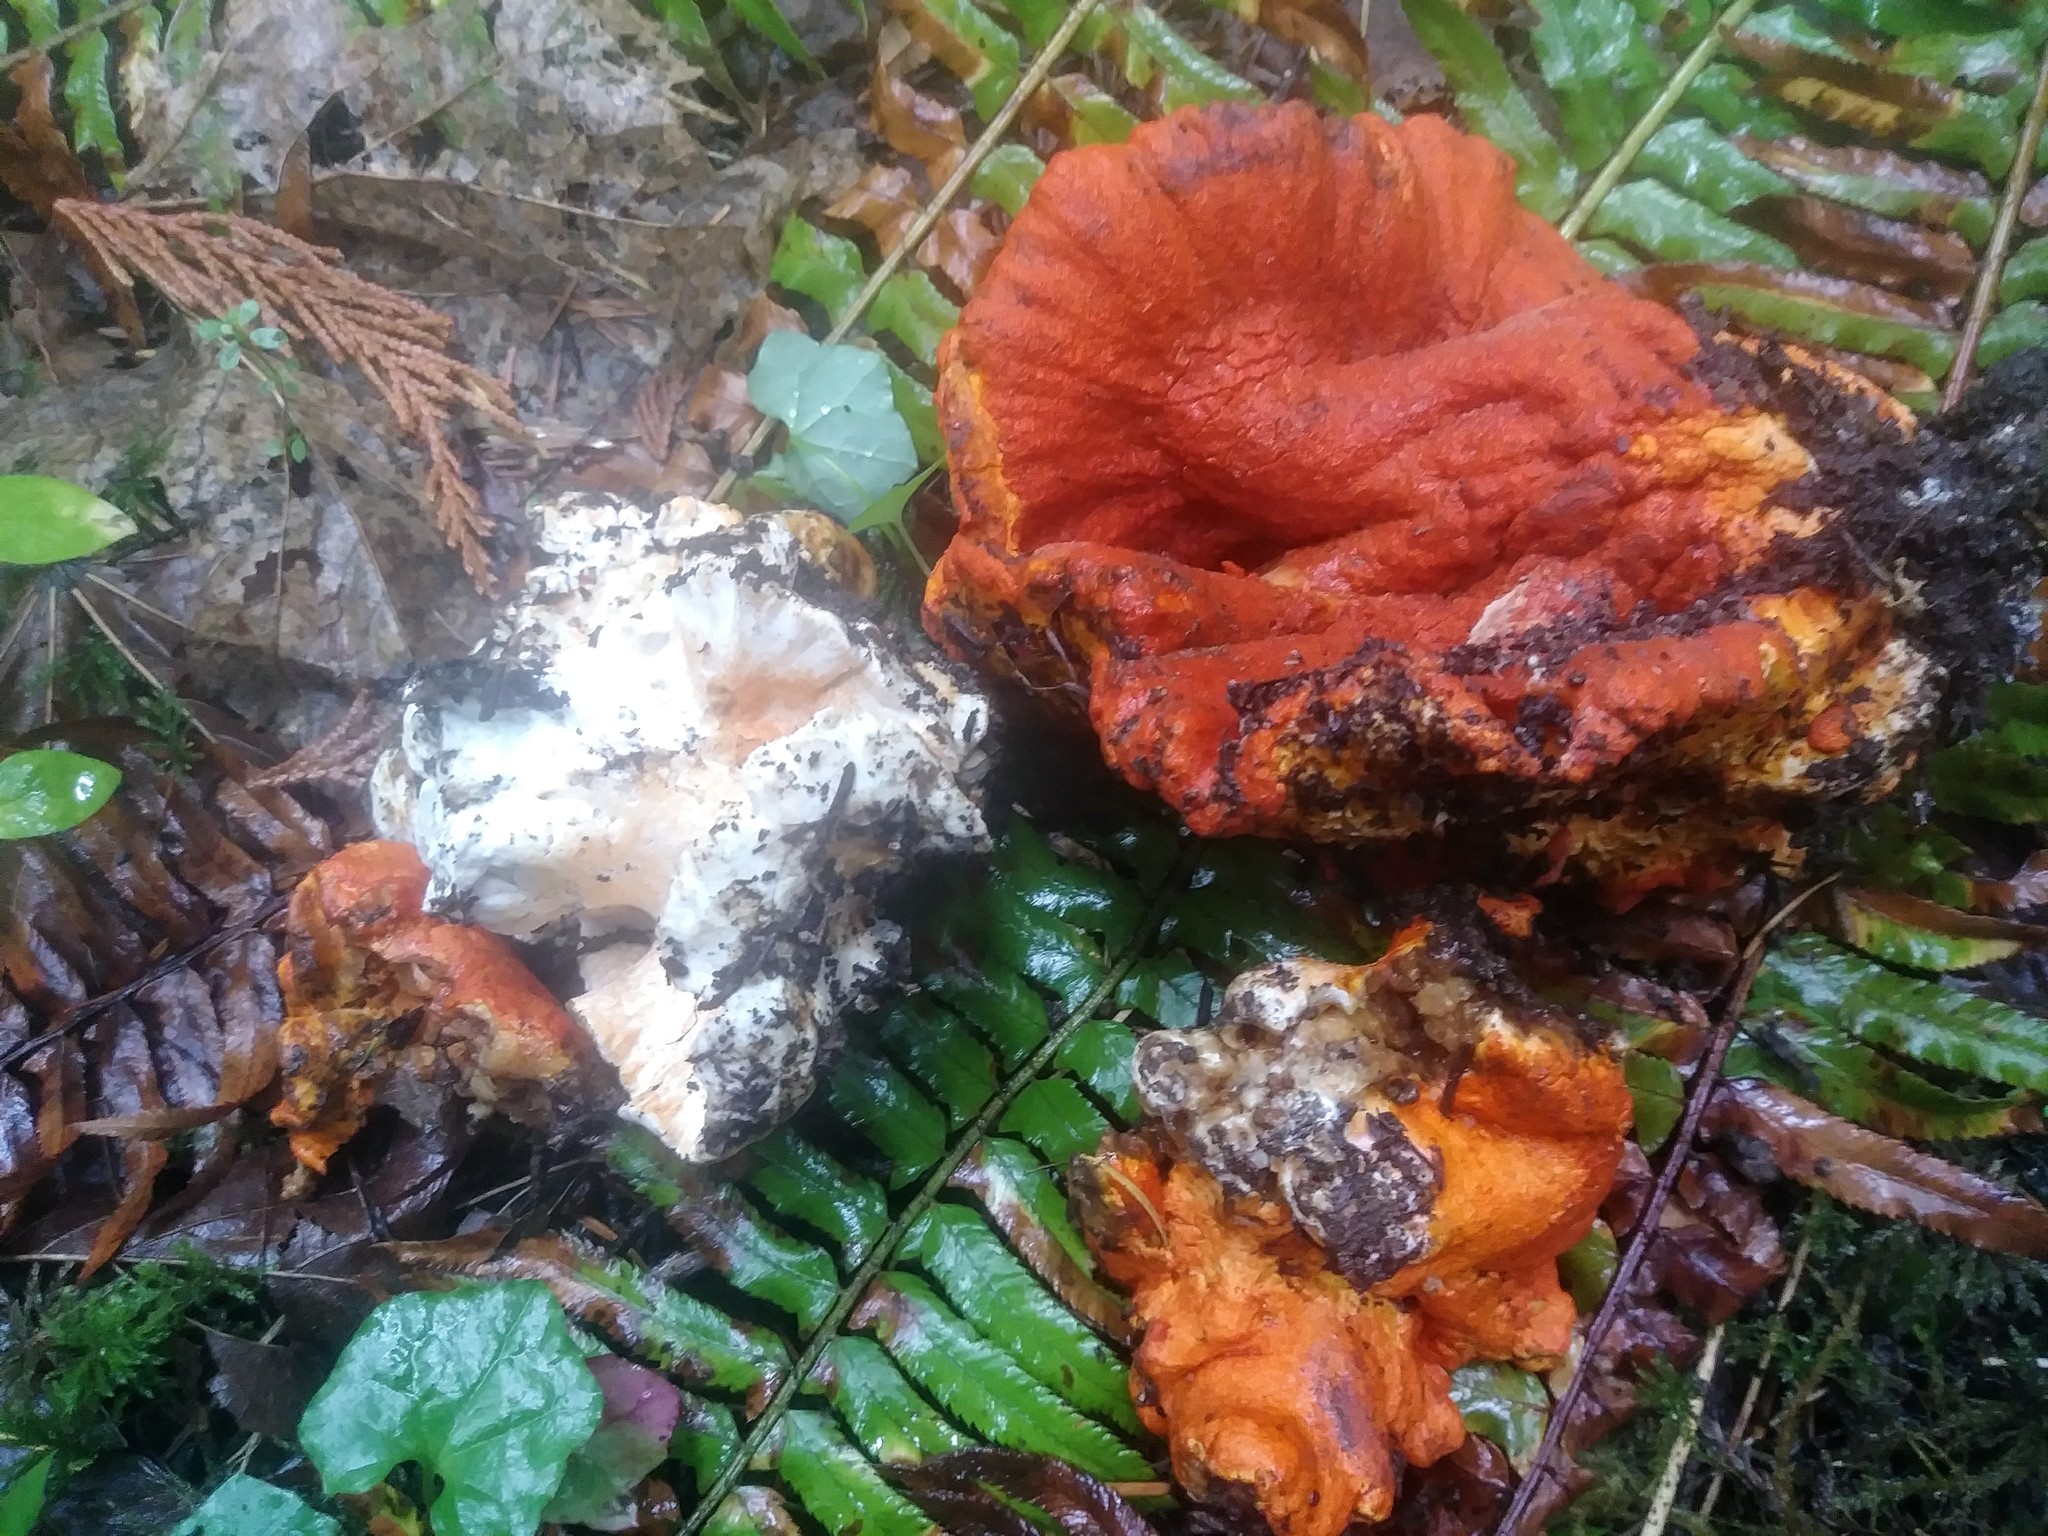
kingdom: Fungi
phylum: Ascomycota
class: Sordariomycetes
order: Hypocreales
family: Hypocreaceae
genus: Hypomyces
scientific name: Hypomyces lactifluorum
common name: Lobster mushroom
